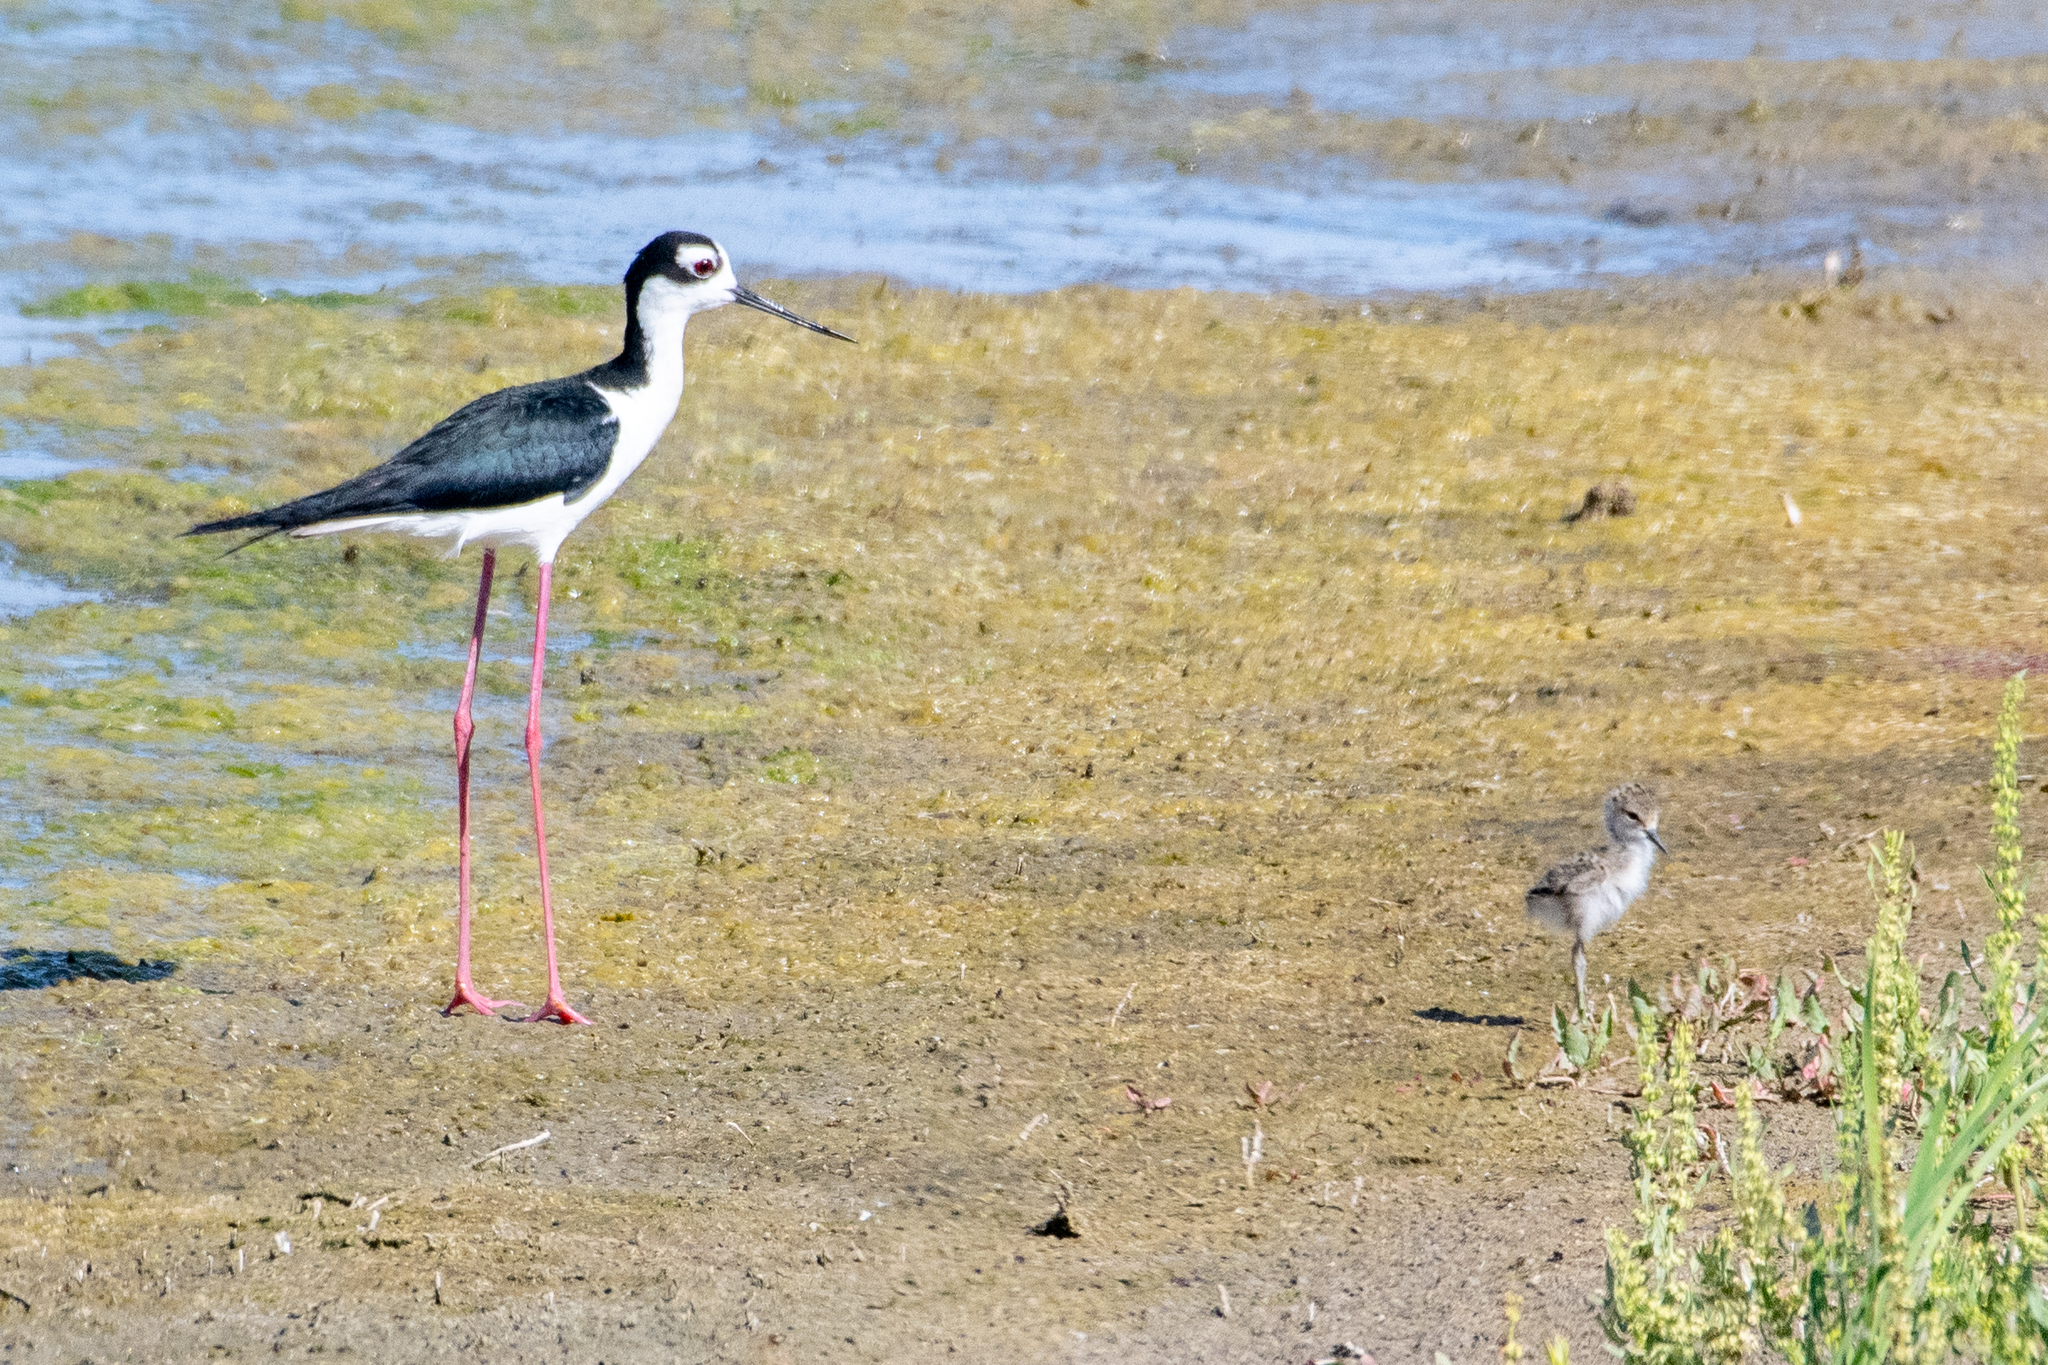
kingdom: Animalia
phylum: Chordata
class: Aves
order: Charadriiformes
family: Recurvirostridae
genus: Himantopus
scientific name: Himantopus mexicanus
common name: Black-necked stilt
